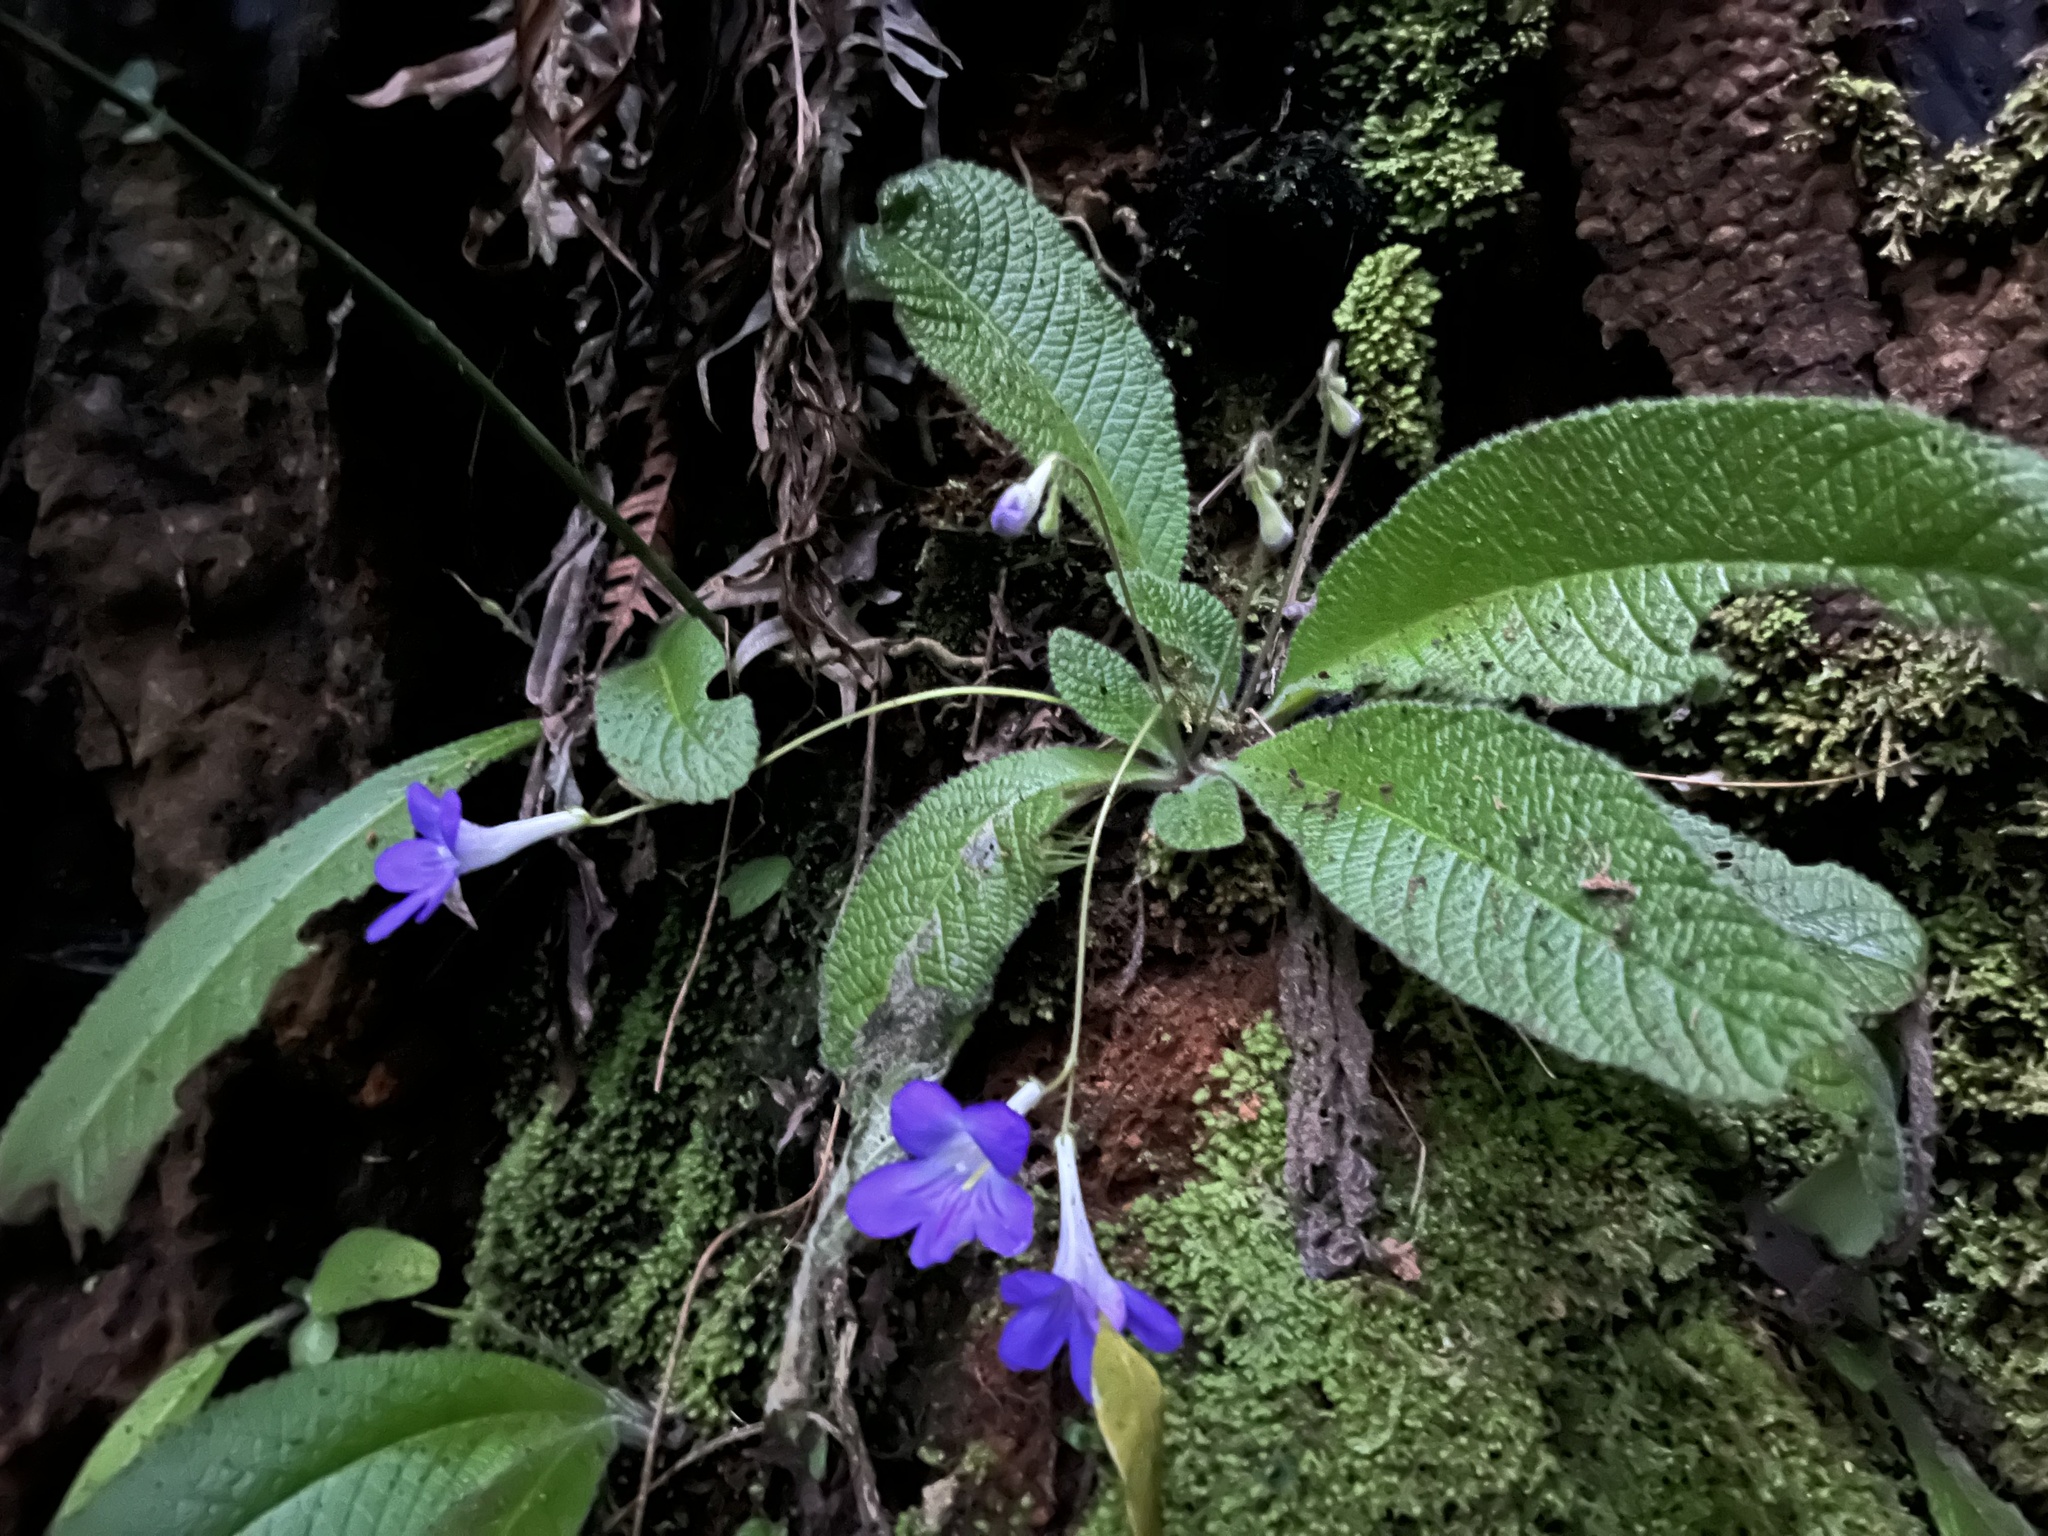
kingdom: Plantae
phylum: Tracheophyta
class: Magnoliopsida
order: Lamiales
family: Gesneriaceae
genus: Streptocarpus
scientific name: Streptocarpus cyaneus
